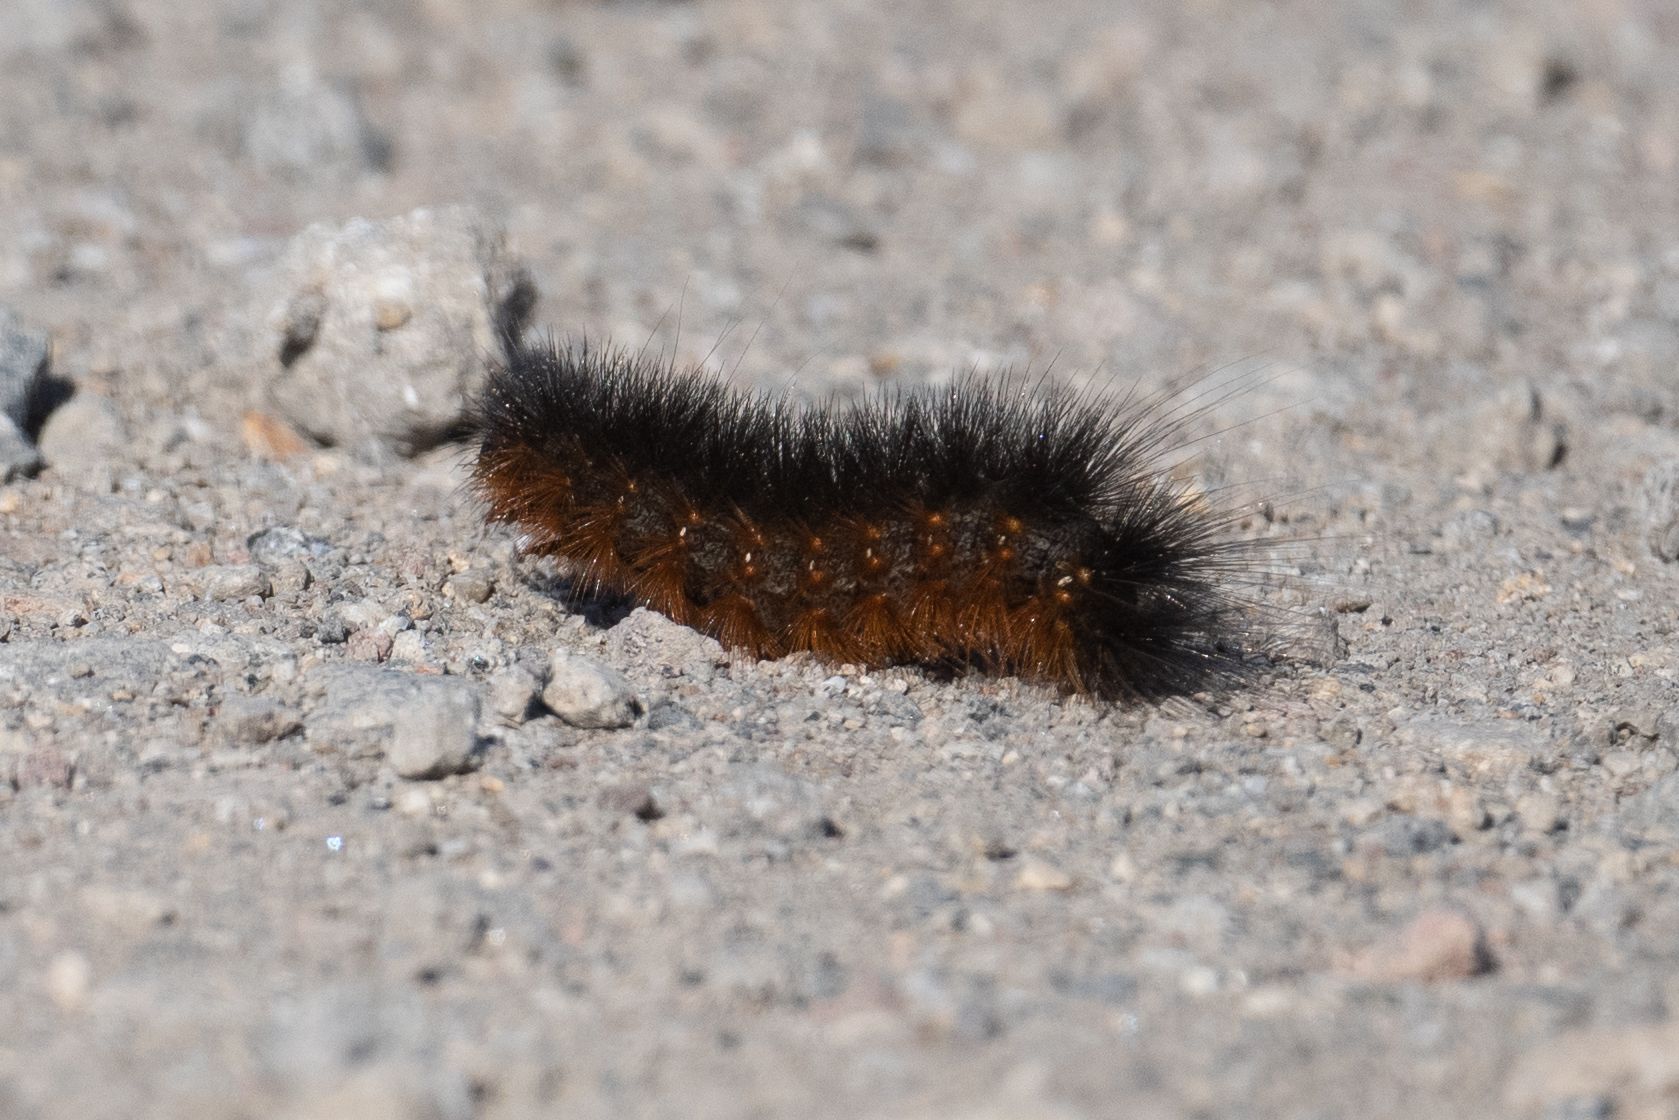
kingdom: Animalia
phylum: Arthropoda
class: Insecta
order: Lepidoptera
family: Erebidae
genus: Estigmene
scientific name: Estigmene acrea
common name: Salt marsh moth
